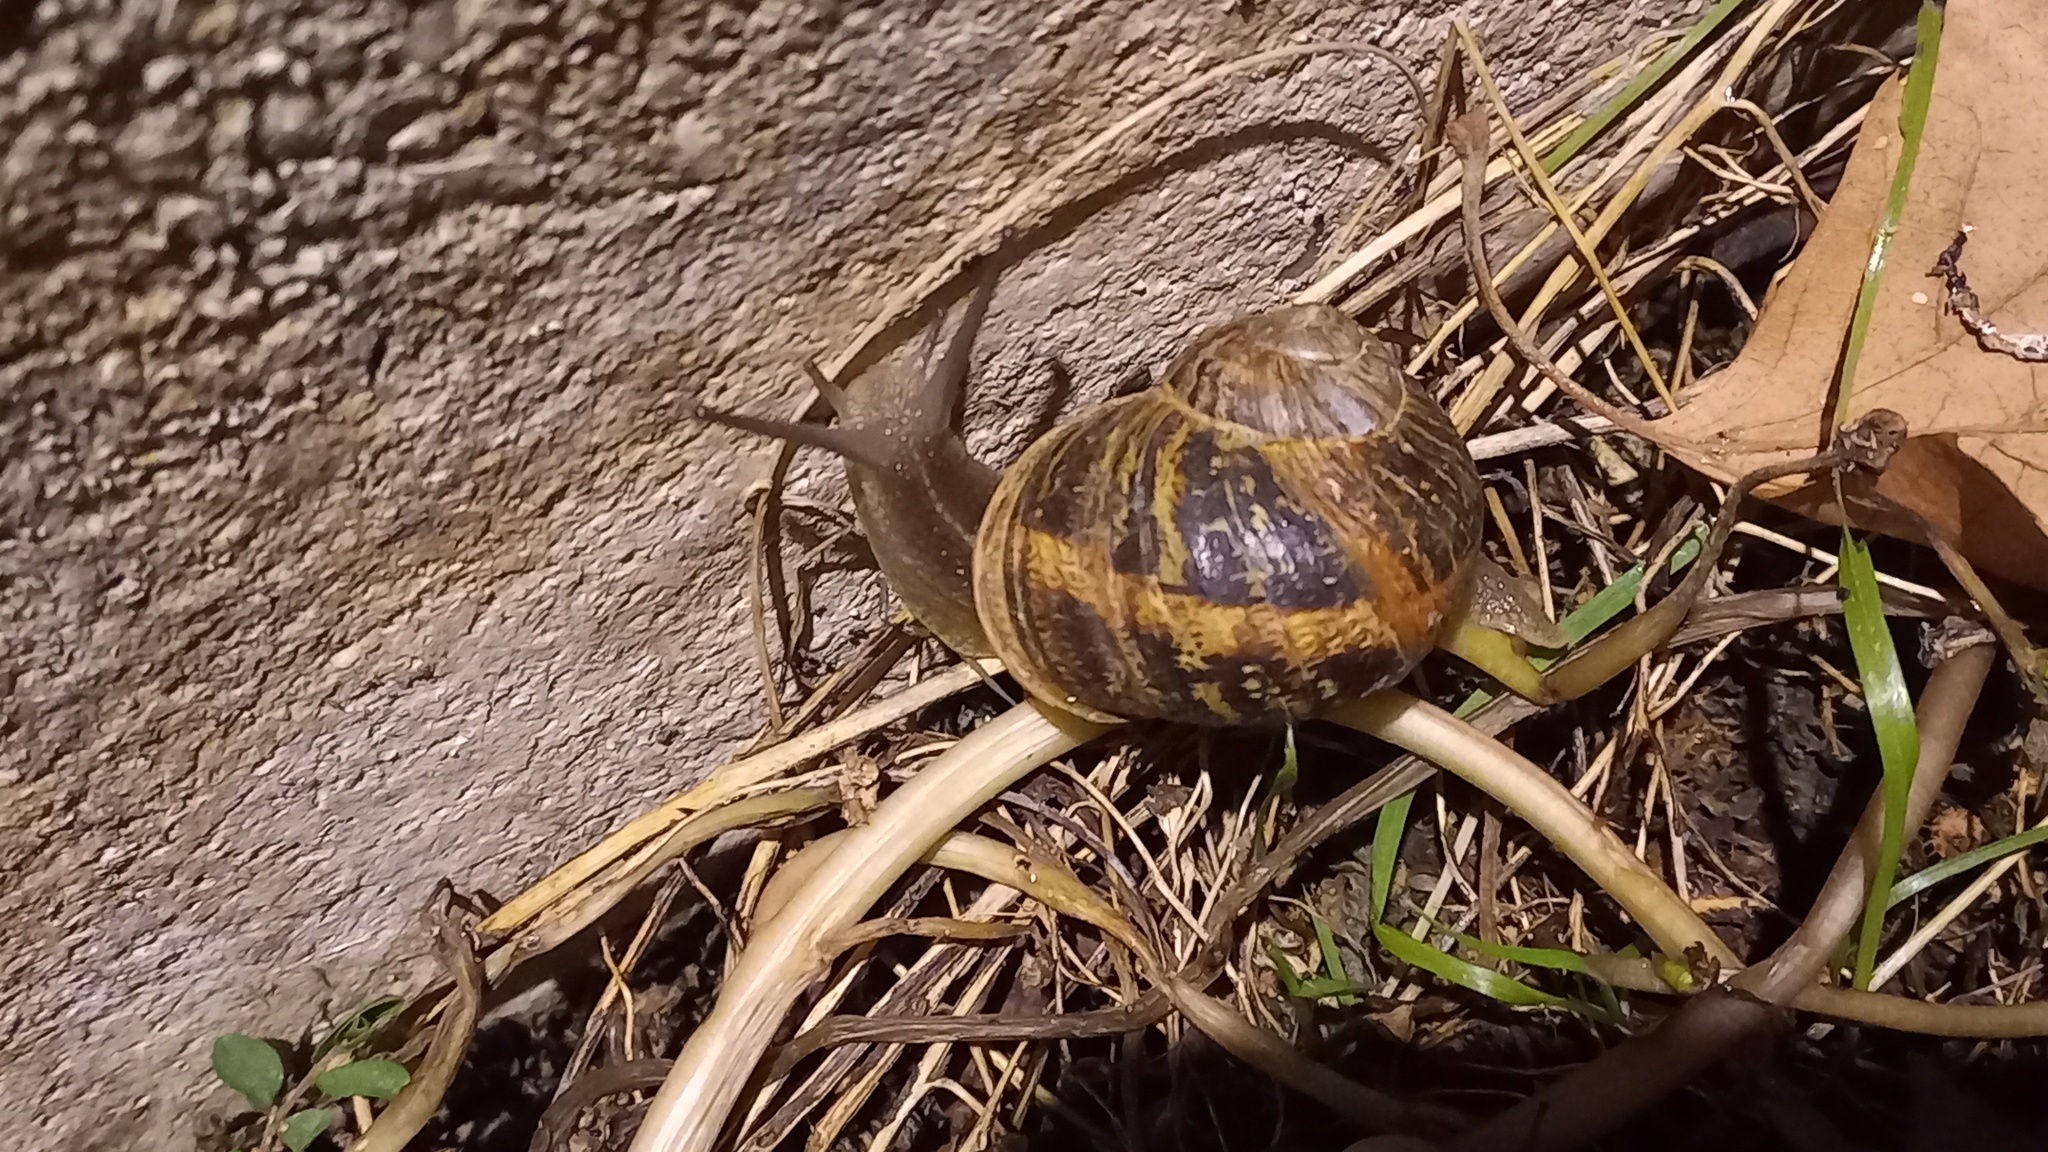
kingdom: Animalia
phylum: Mollusca
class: Gastropoda
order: Stylommatophora
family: Helicidae
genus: Cornu
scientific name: Cornu aspersum
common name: Brown garden snail
